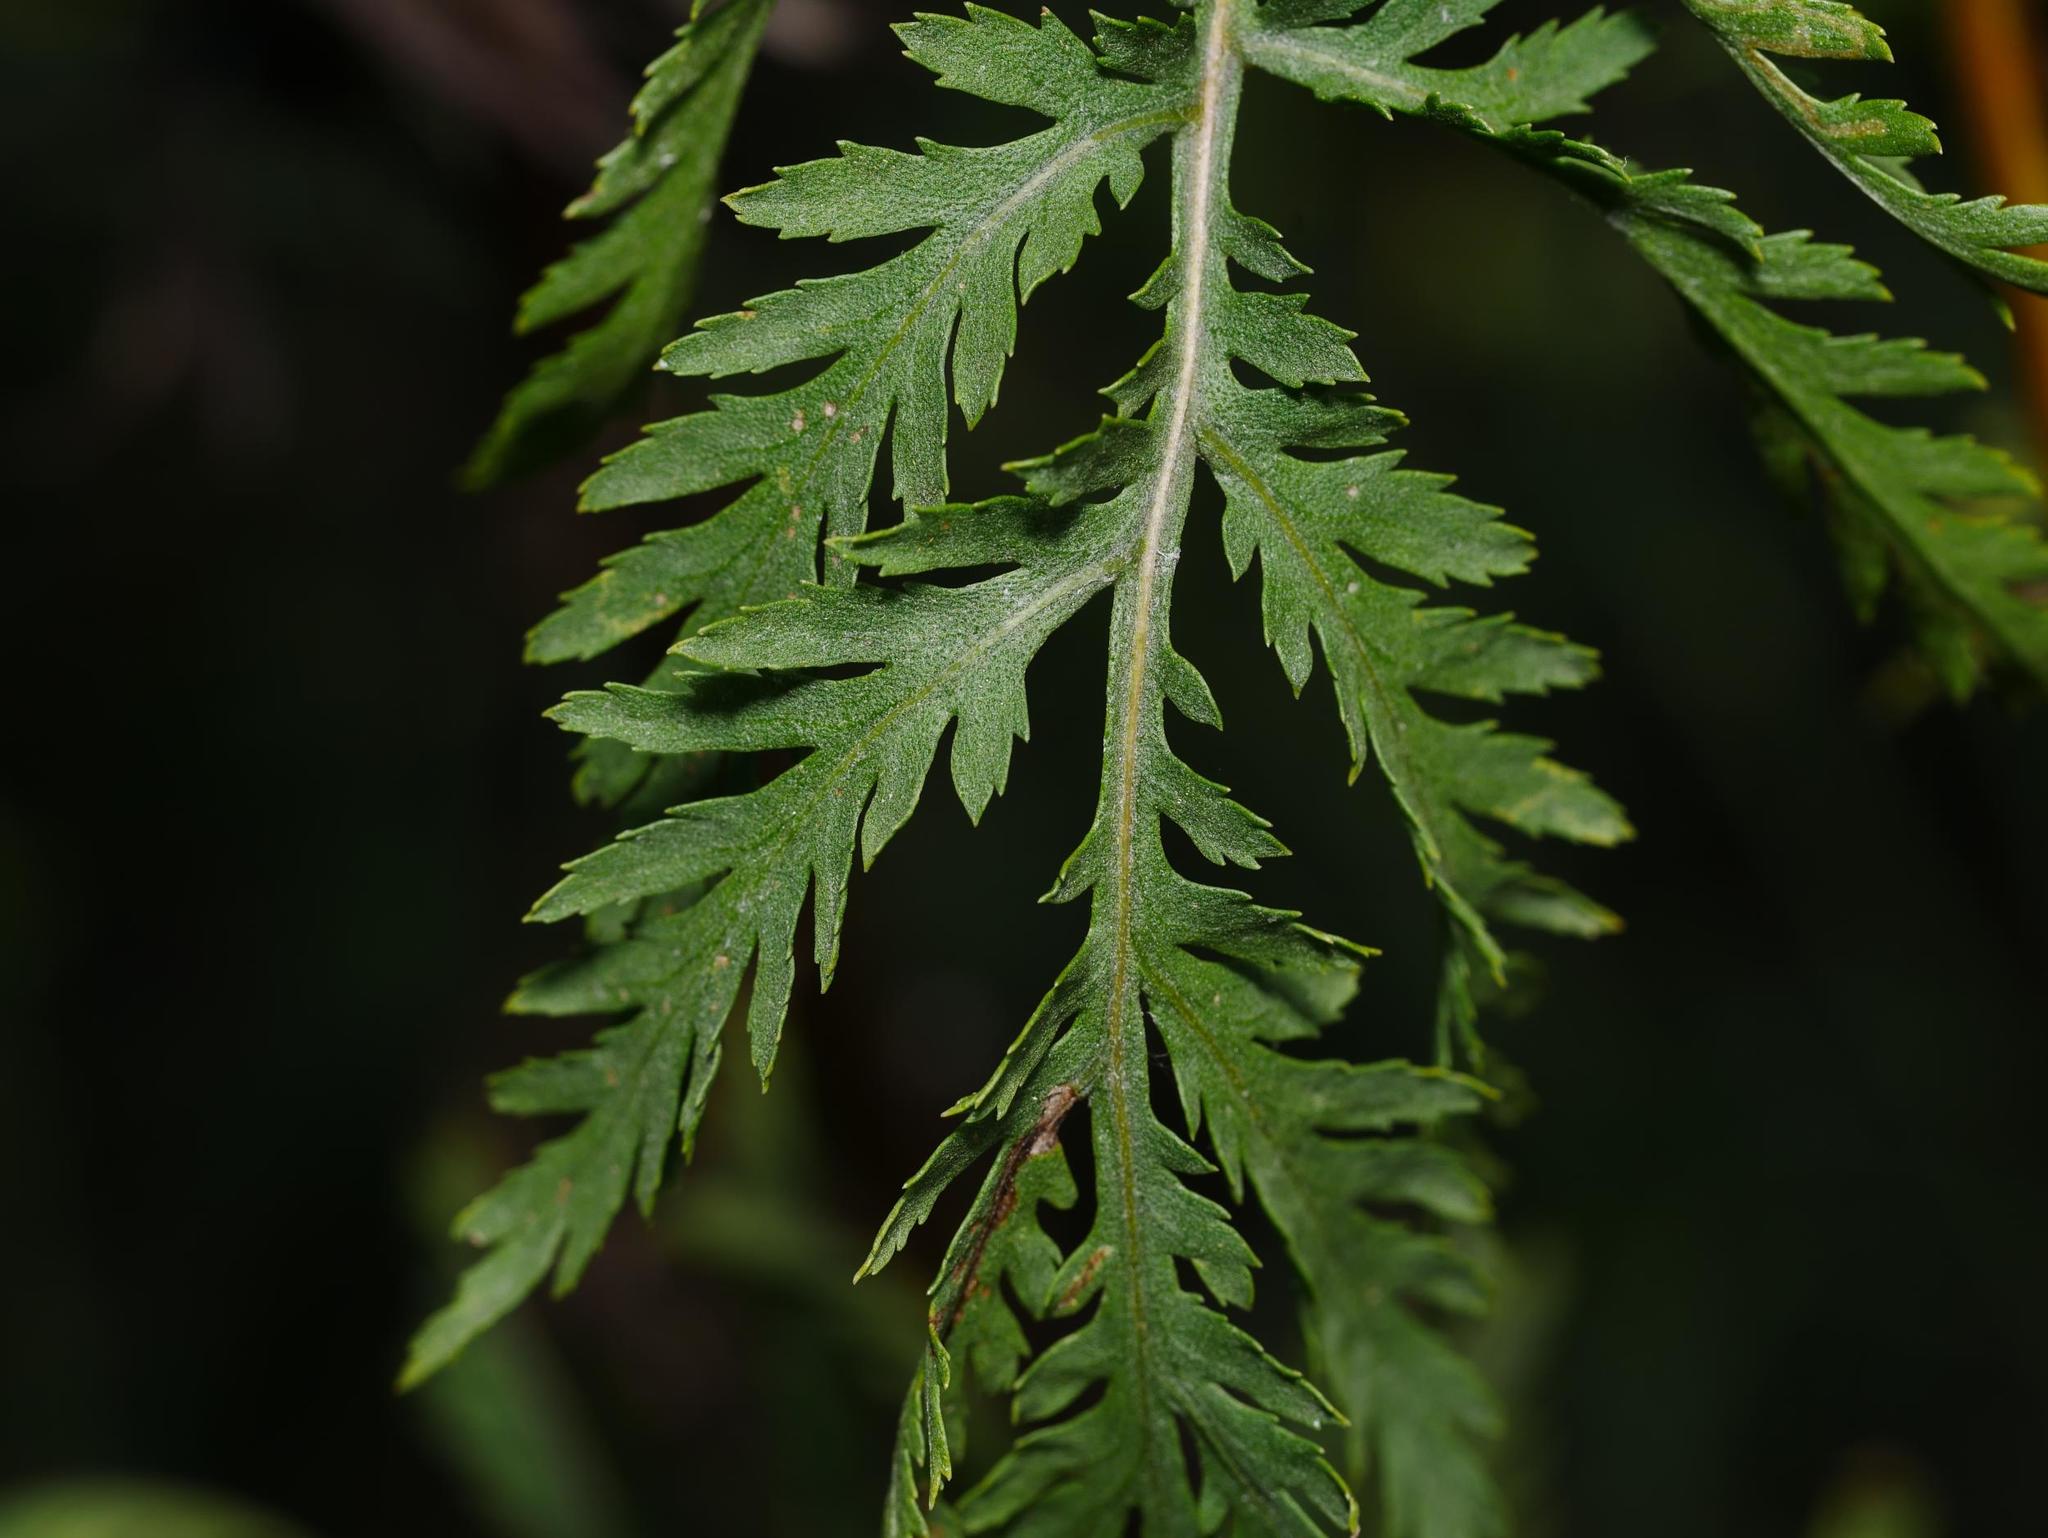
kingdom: Plantae
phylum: Tracheophyta
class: Magnoliopsida
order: Asterales
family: Asteraceae
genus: Tanacetum
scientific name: Tanacetum vulgare
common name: Common tansy
